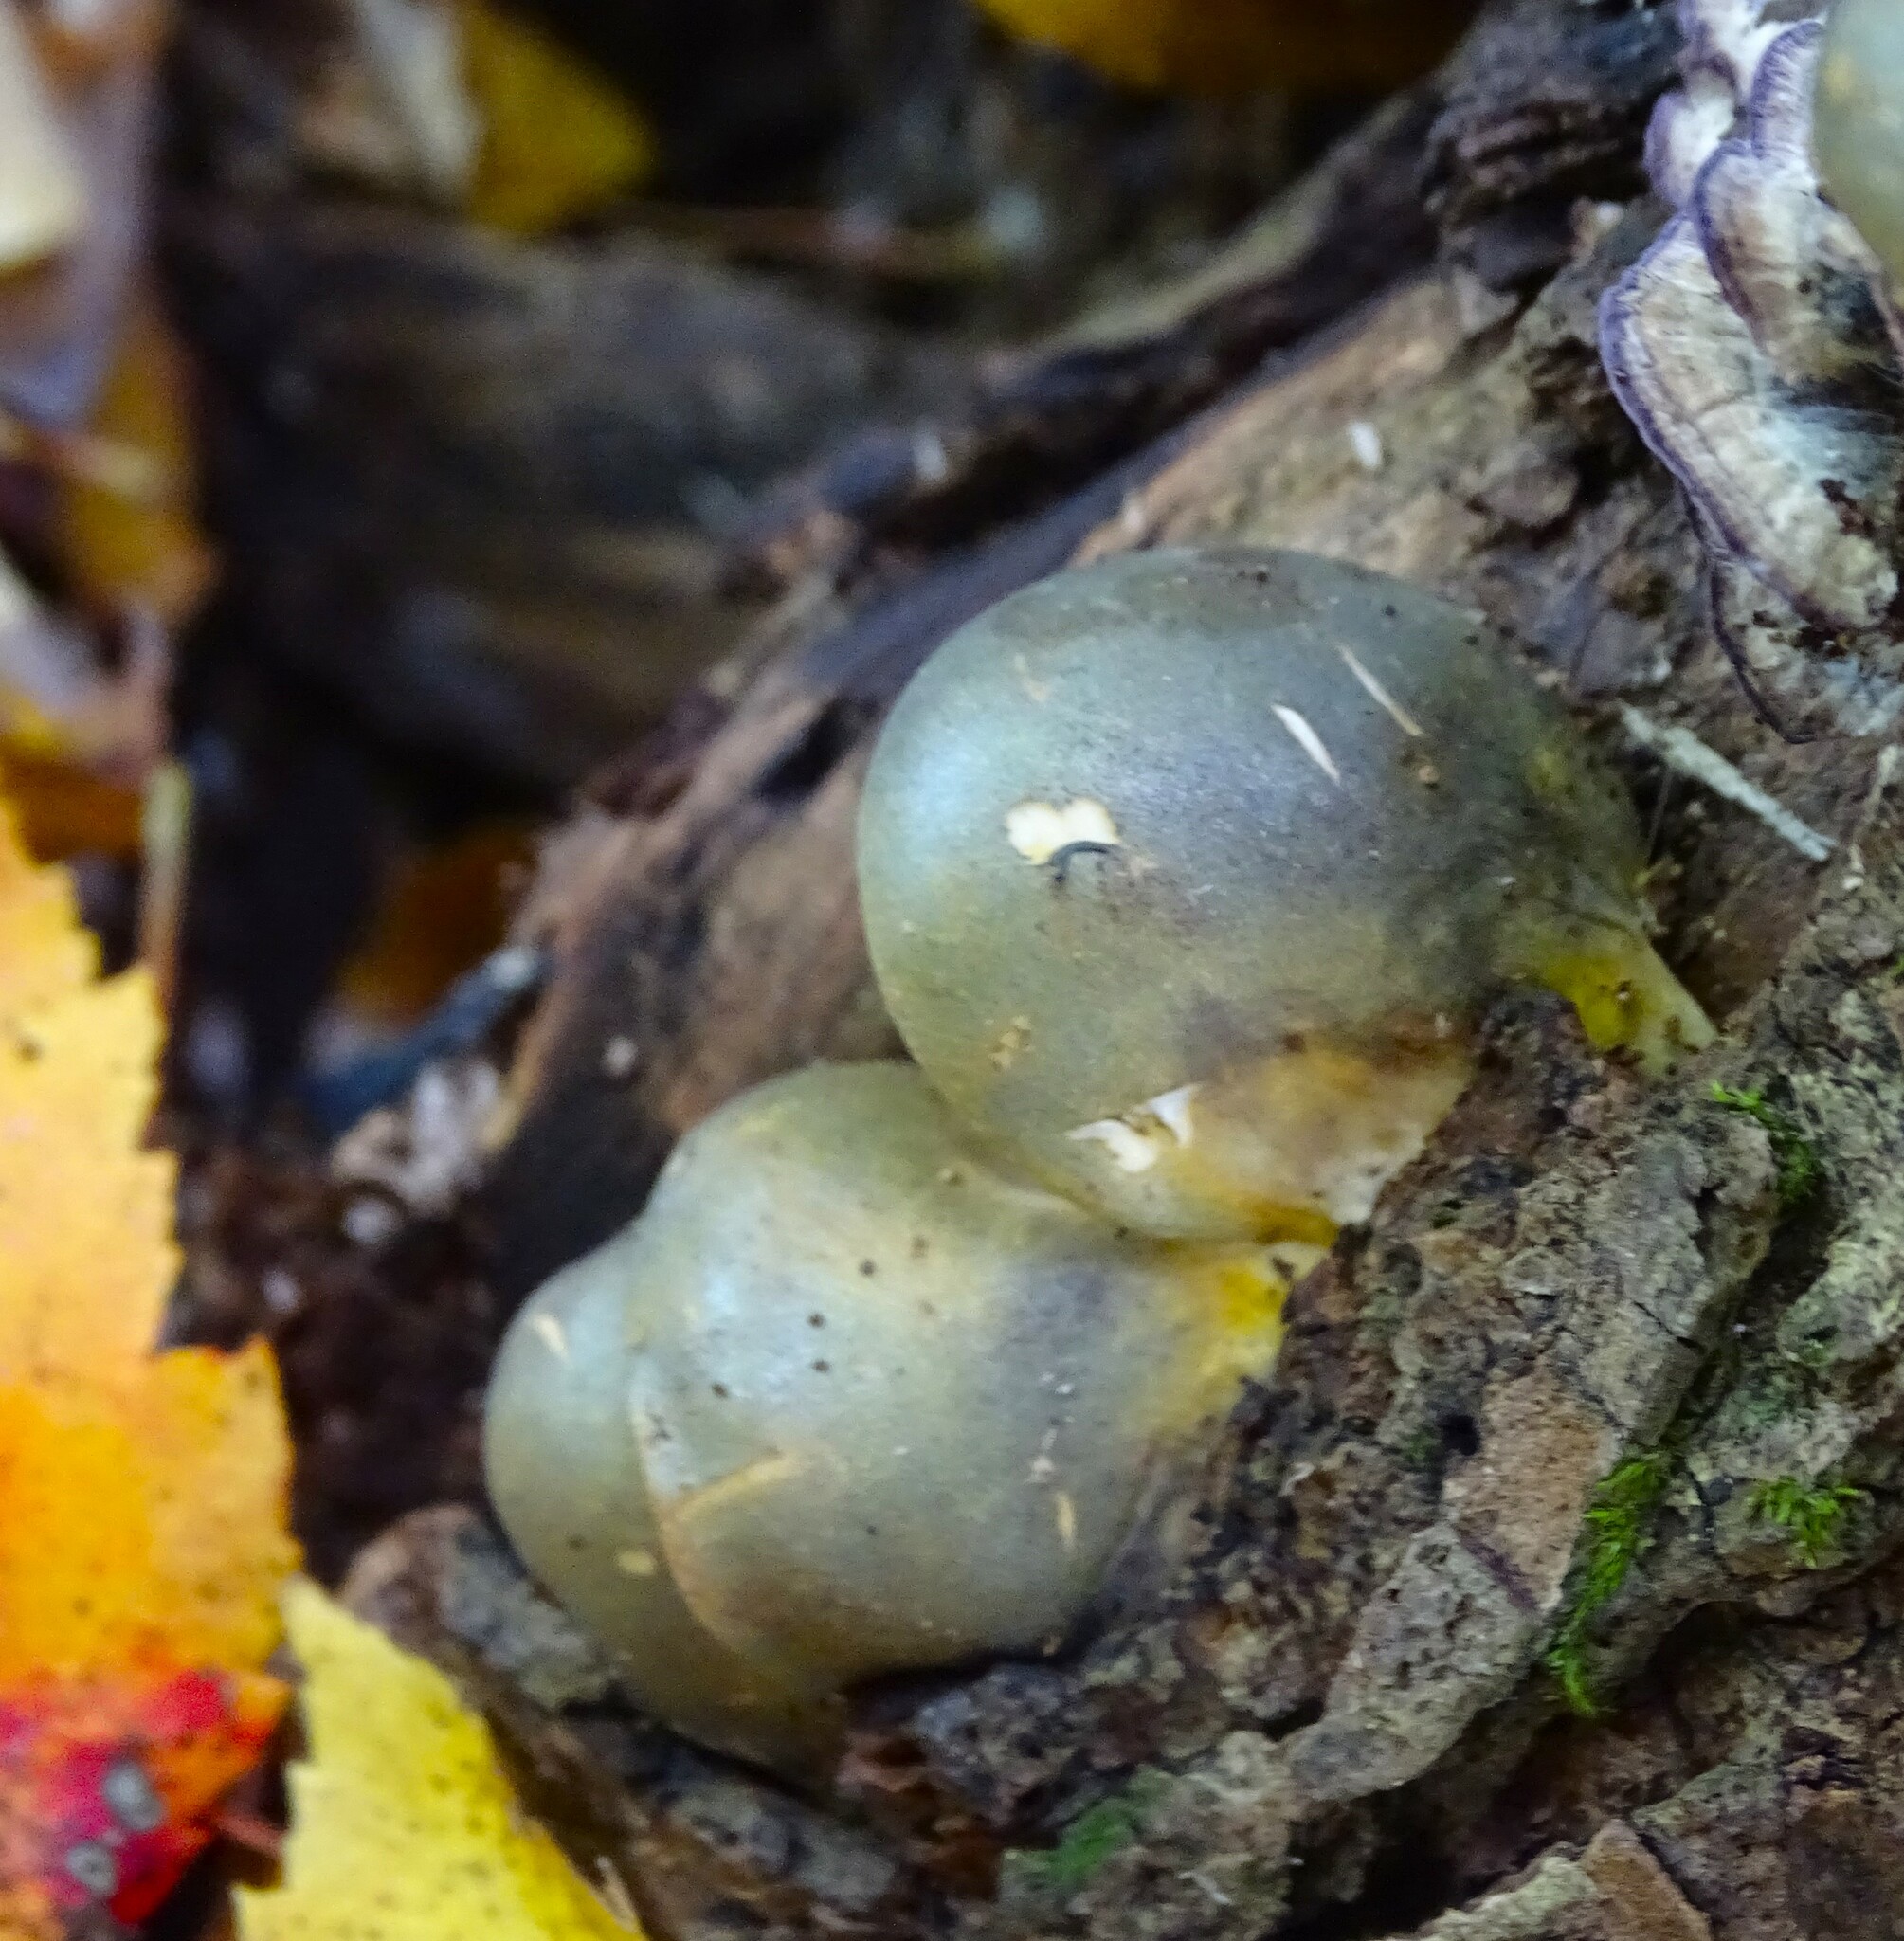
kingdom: Fungi
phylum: Basidiomycota
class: Agaricomycetes
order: Agaricales
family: Sarcomyxaceae
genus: Sarcomyxa
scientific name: Sarcomyxa serotina
